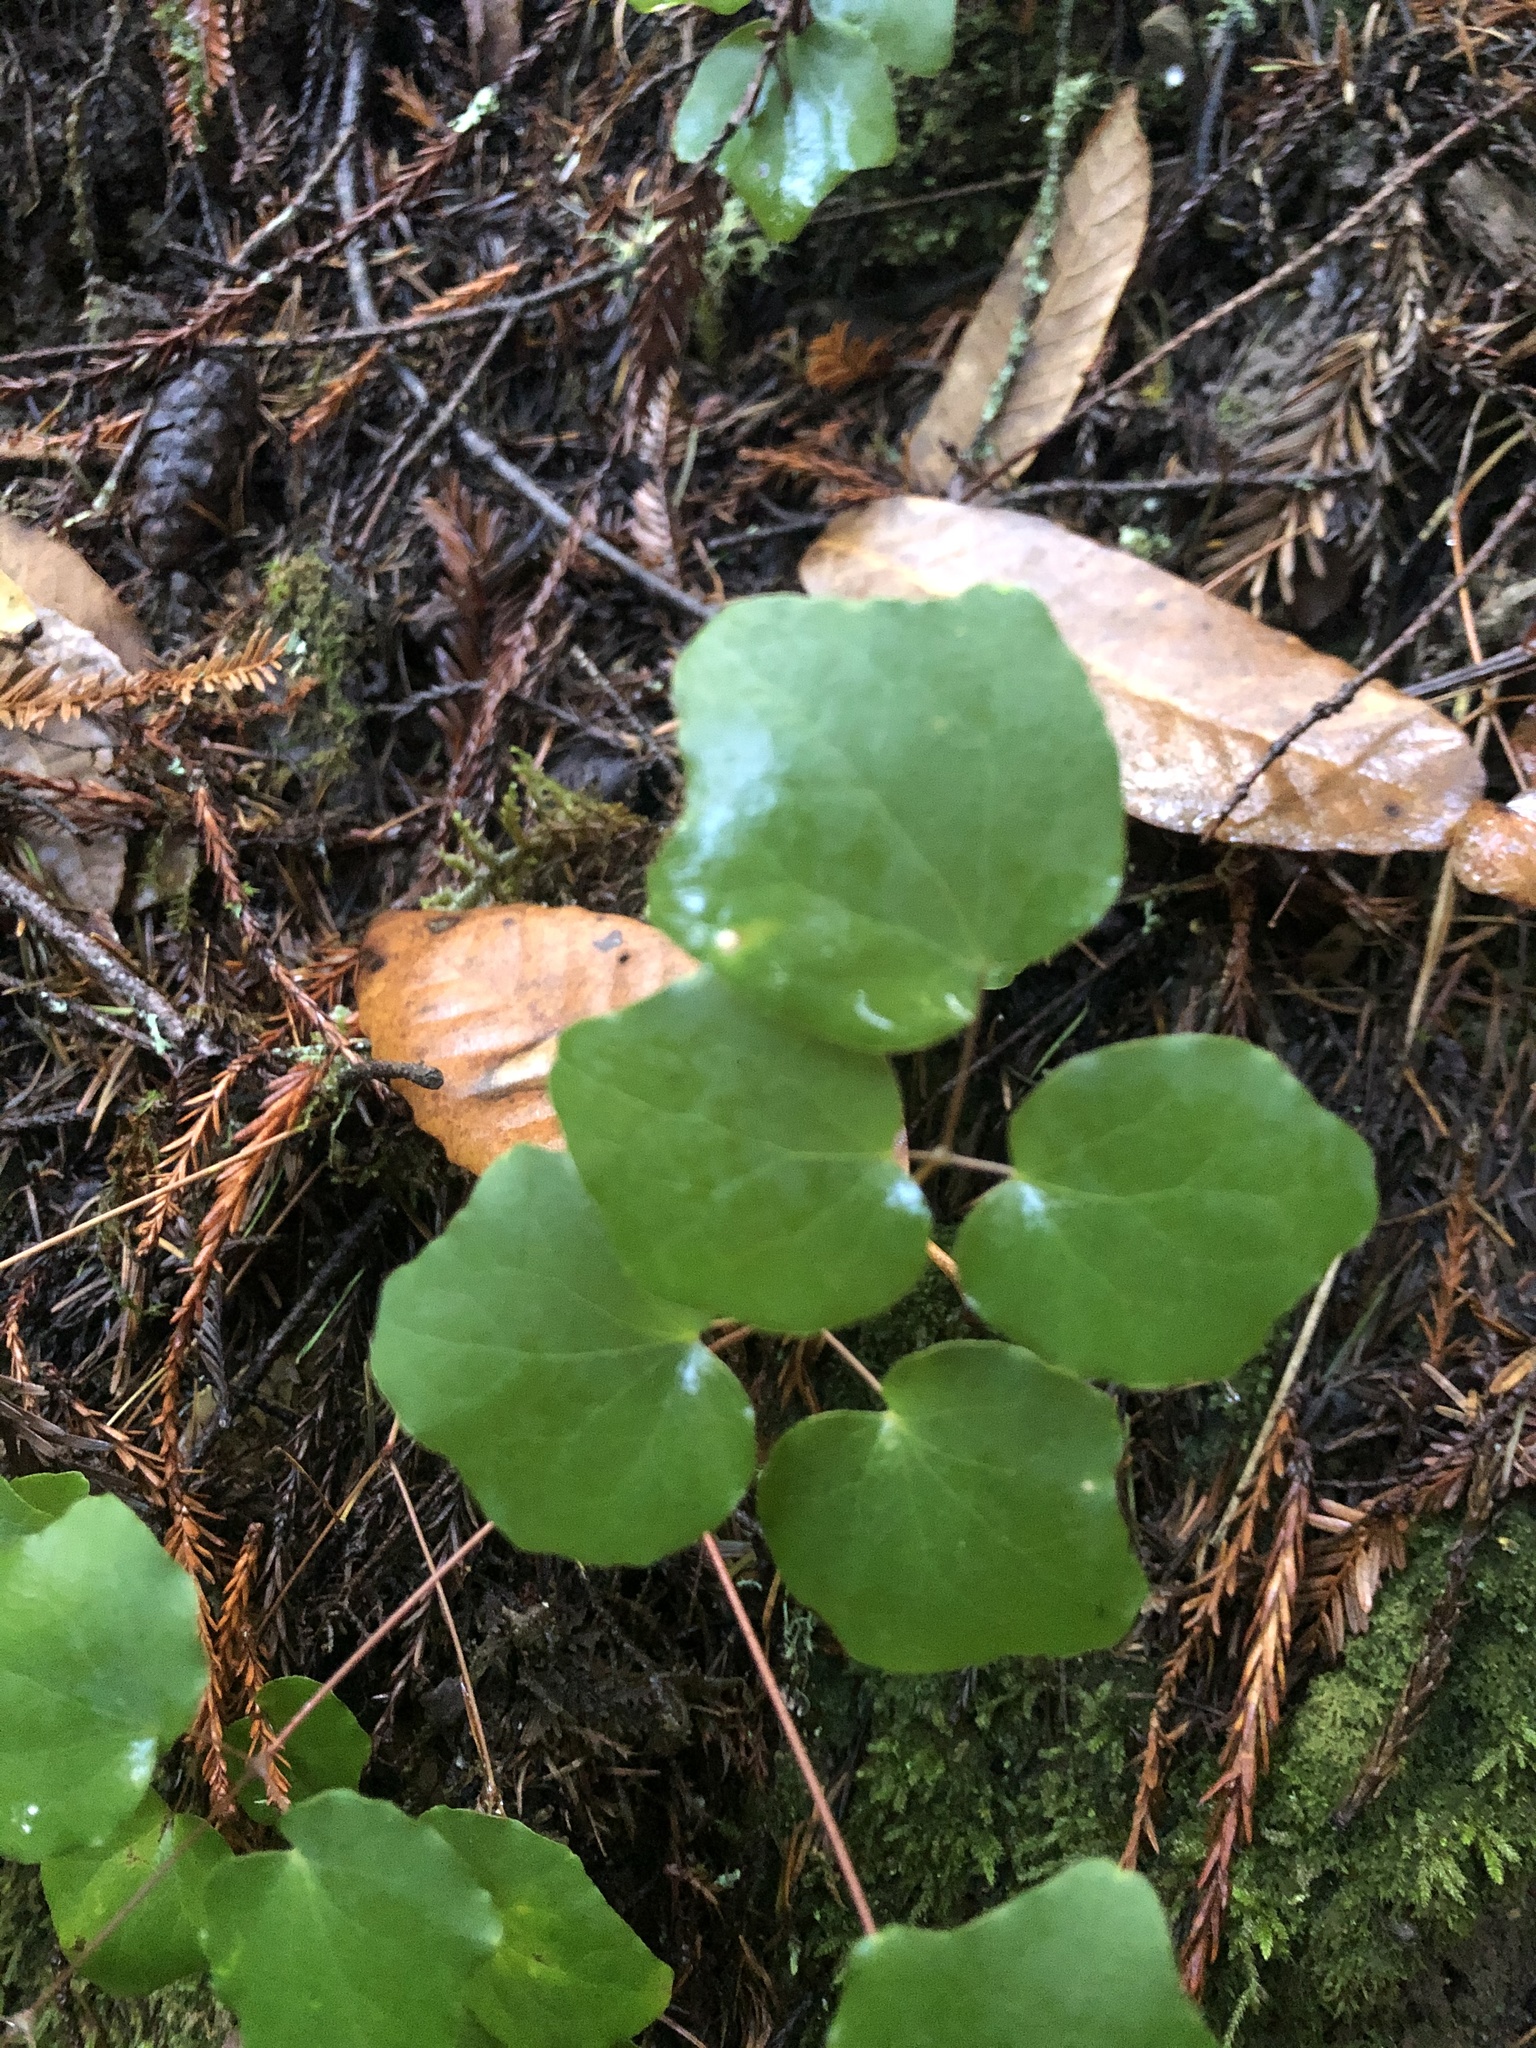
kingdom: Plantae
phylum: Tracheophyta
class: Magnoliopsida
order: Ranunculales
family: Berberidaceae
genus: Vancouveria
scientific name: Vancouveria planipetala
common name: Redwood-ivy
